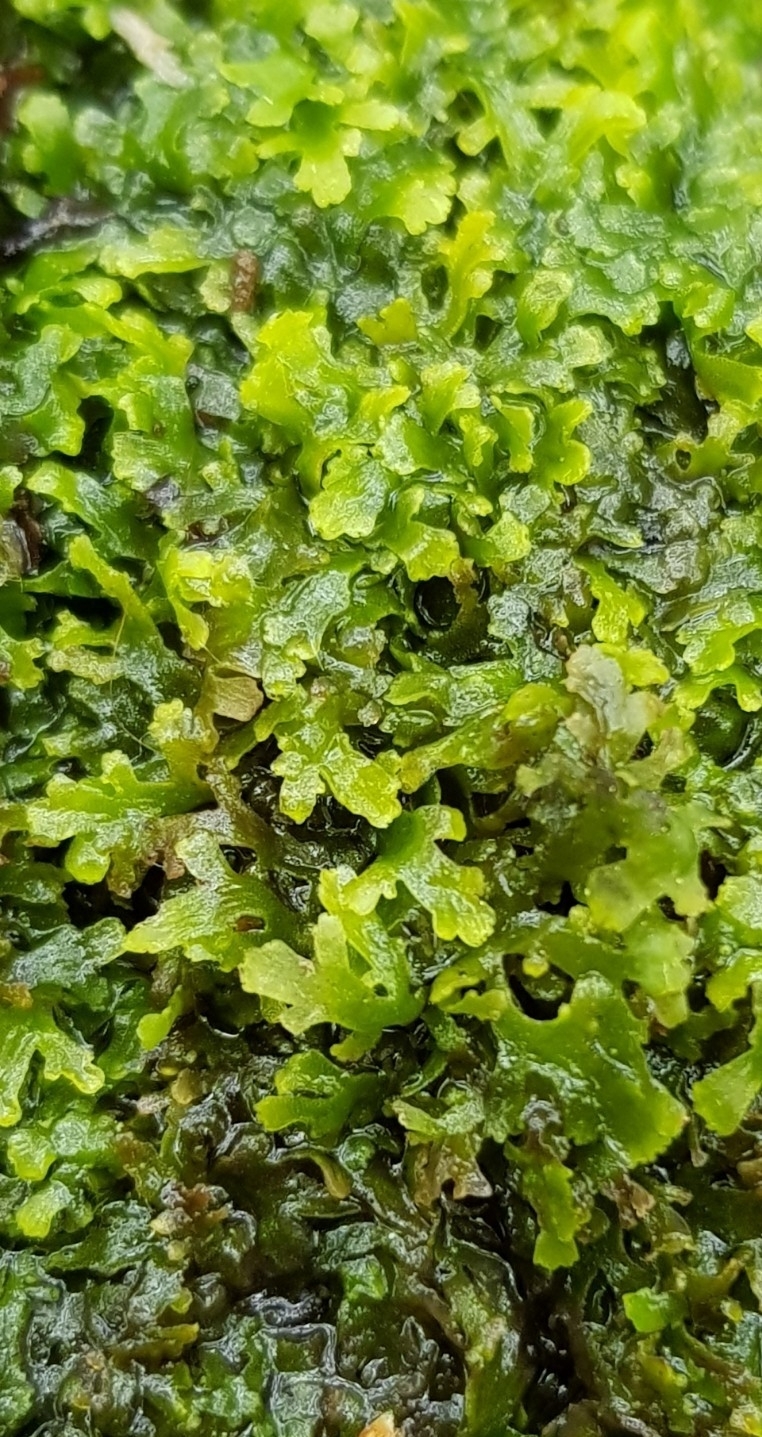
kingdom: Plantae
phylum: Marchantiophyta
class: Jungermanniopsida
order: Metzgeriales
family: Aneuraceae
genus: Riccardia
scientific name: Riccardia multifida
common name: Delicate germanderwort
